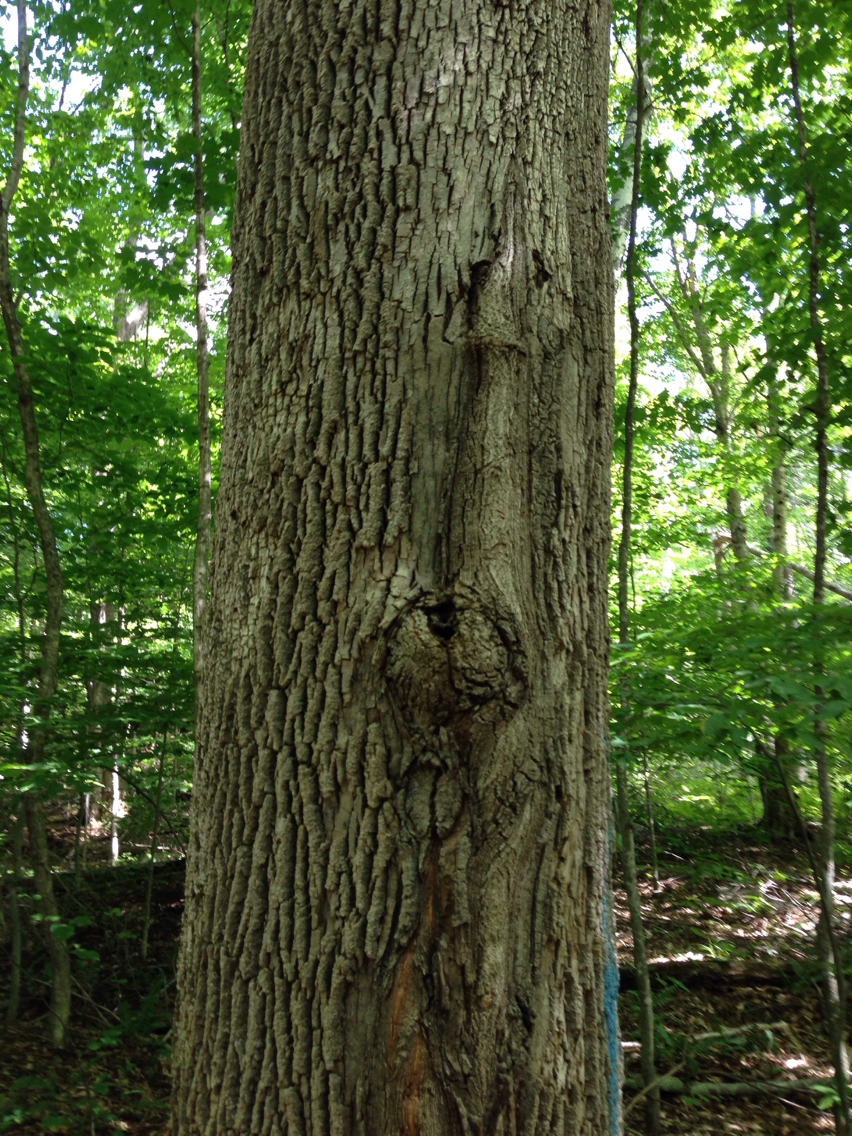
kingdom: Plantae
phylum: Tracheophyta
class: Magnoliopsida
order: Lamiales
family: Oleaceae
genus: Fraxinus
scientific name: Fraxinus americana
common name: White ash
